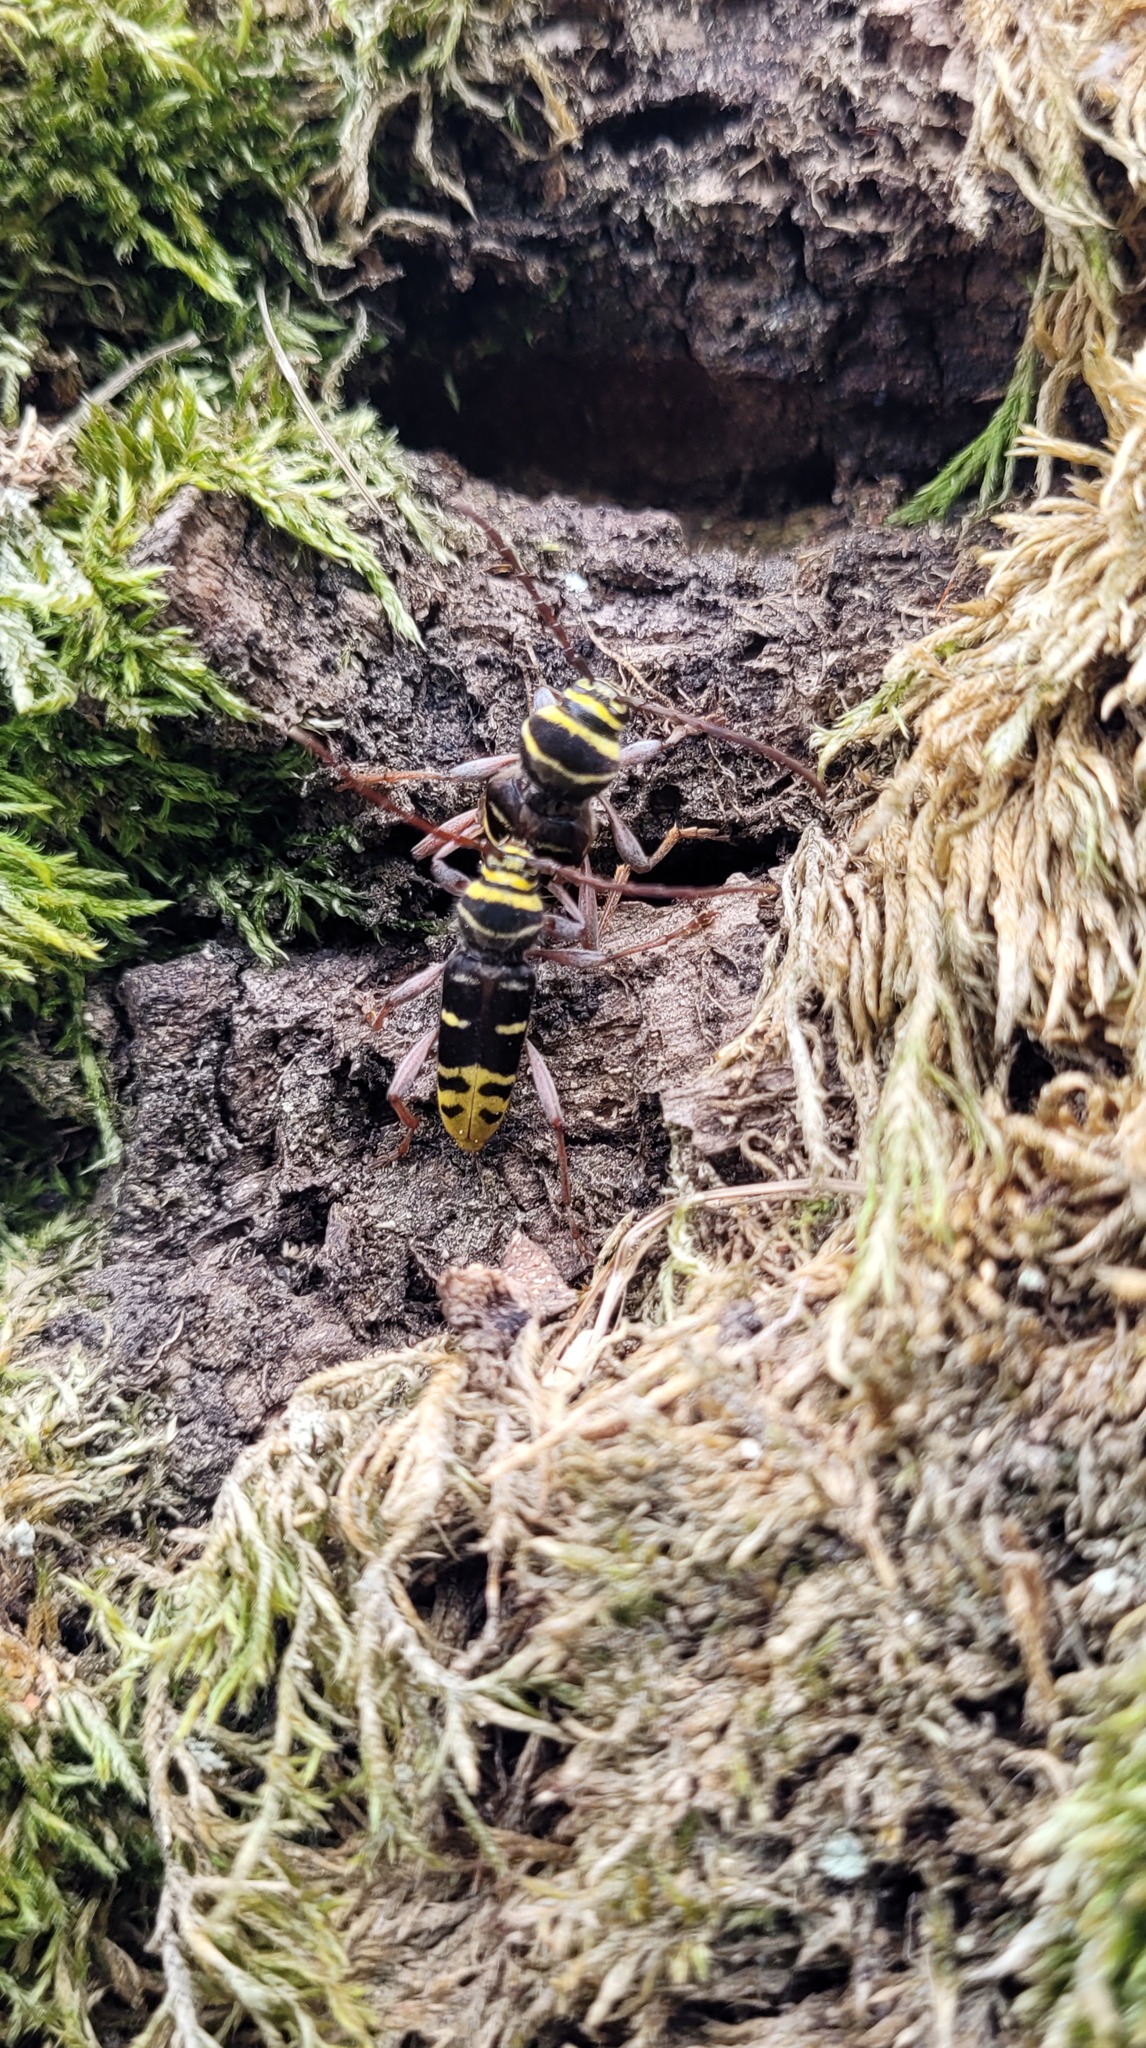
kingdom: Animalia
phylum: Arthropoda
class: Insecta
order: Coleoptera
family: Cerambycidae
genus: Plagionotus
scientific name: Plagionotus detritus
